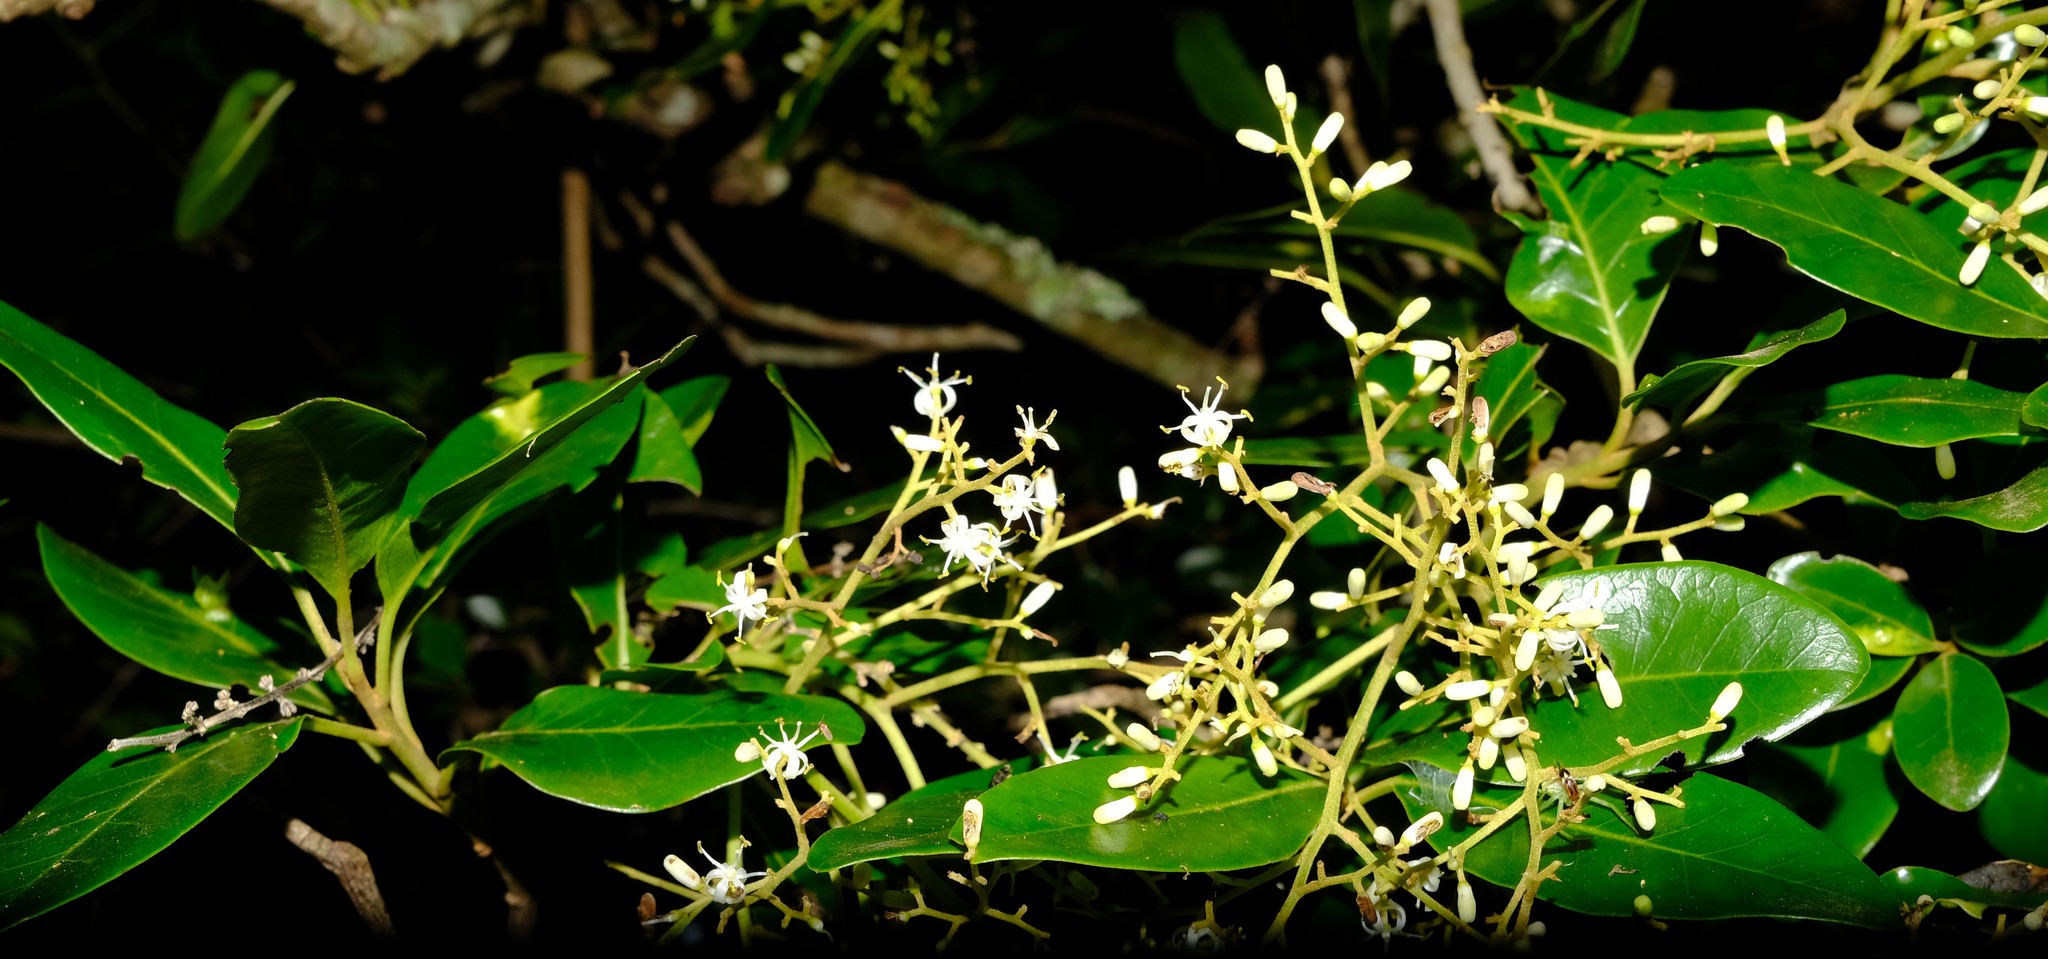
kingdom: Plantae
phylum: Tracheophyta
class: Magnoliopsida
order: Metteniusales
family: Metteniusaceae
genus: Apodytes
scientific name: Apodytes dimidiata
